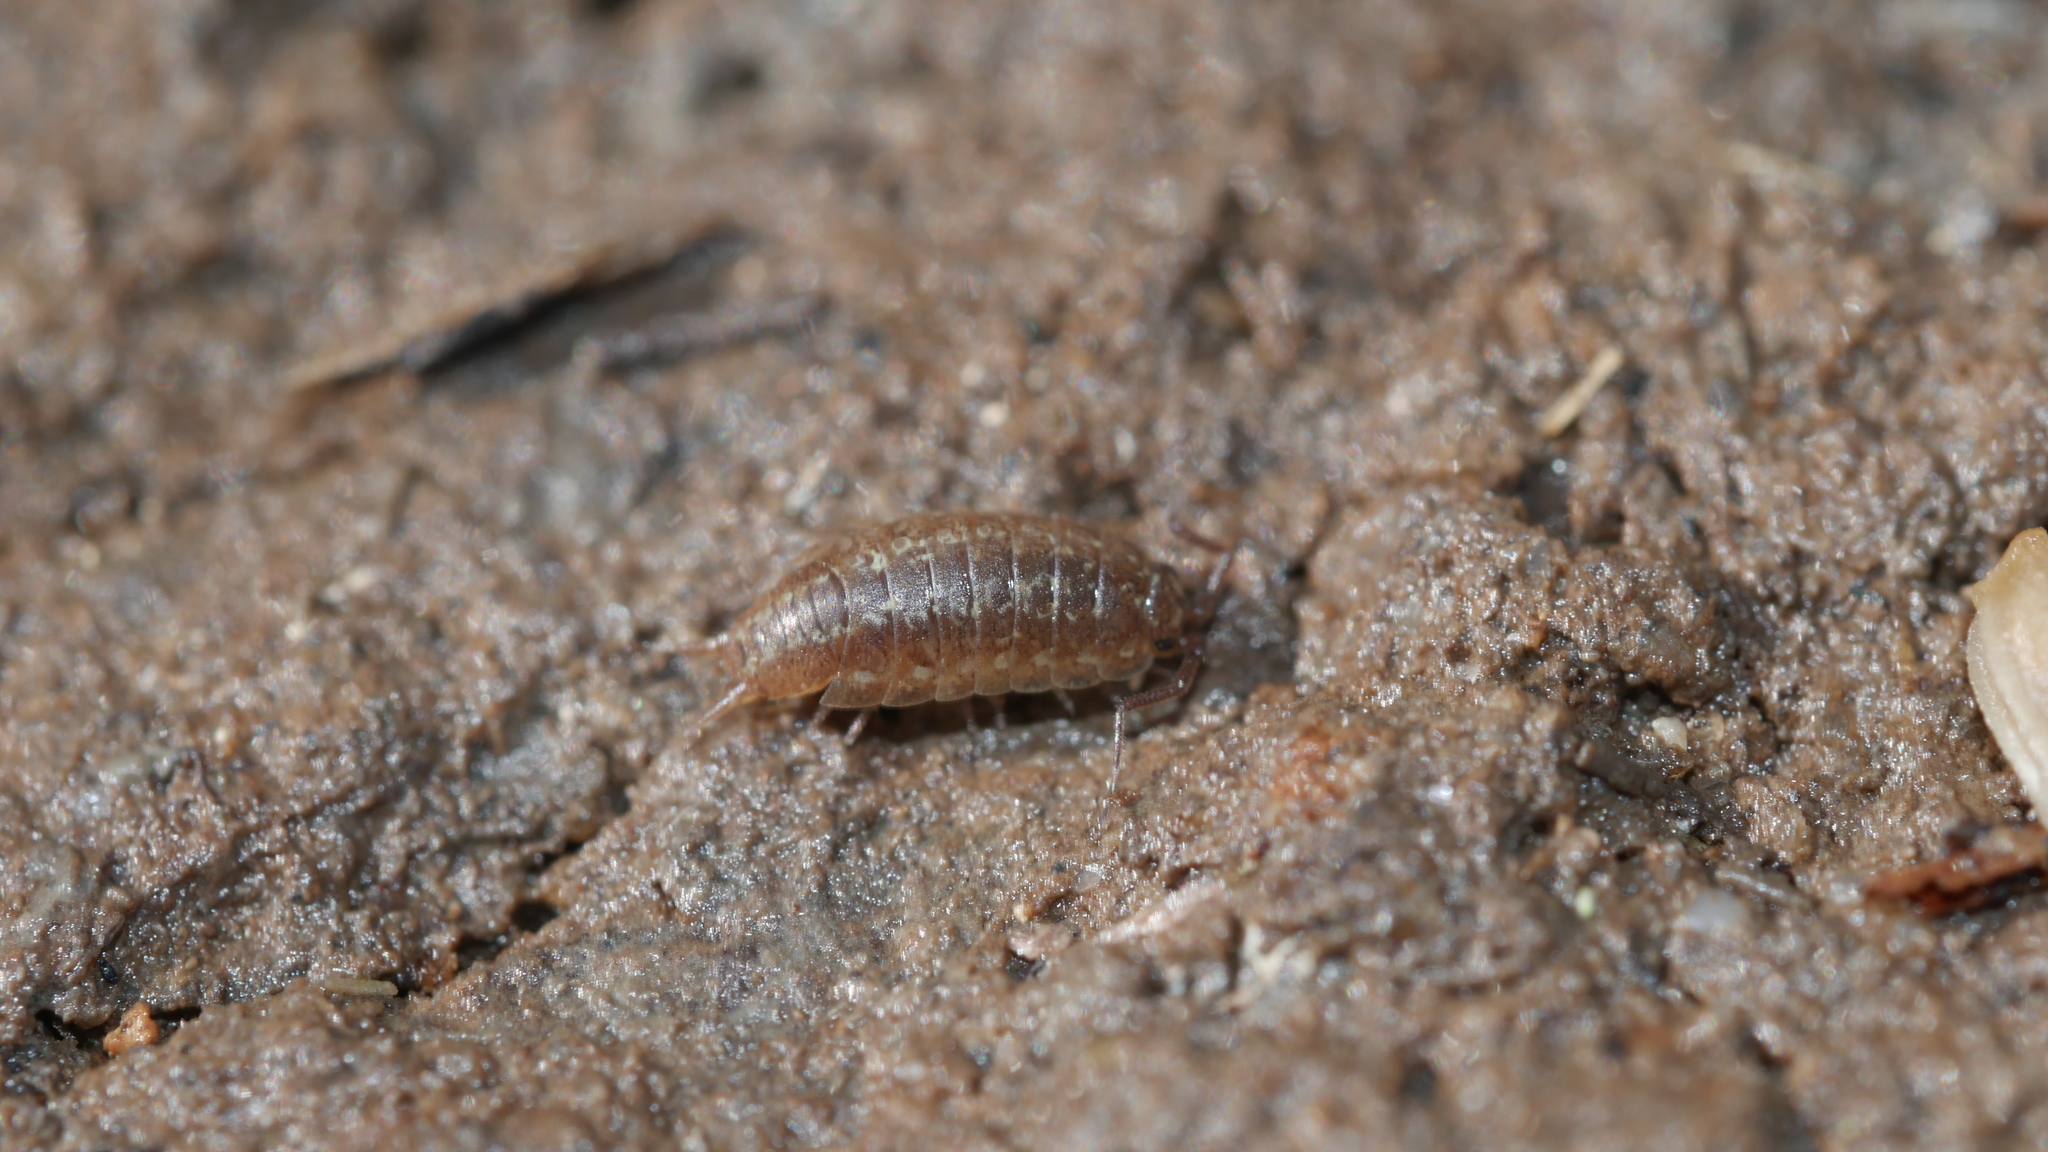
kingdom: Animalia
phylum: Arthropoda
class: Malacostraca
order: Isopoda
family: Halophilosciidae
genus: Littorophiloscia
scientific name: Littorophiloscia vittata
